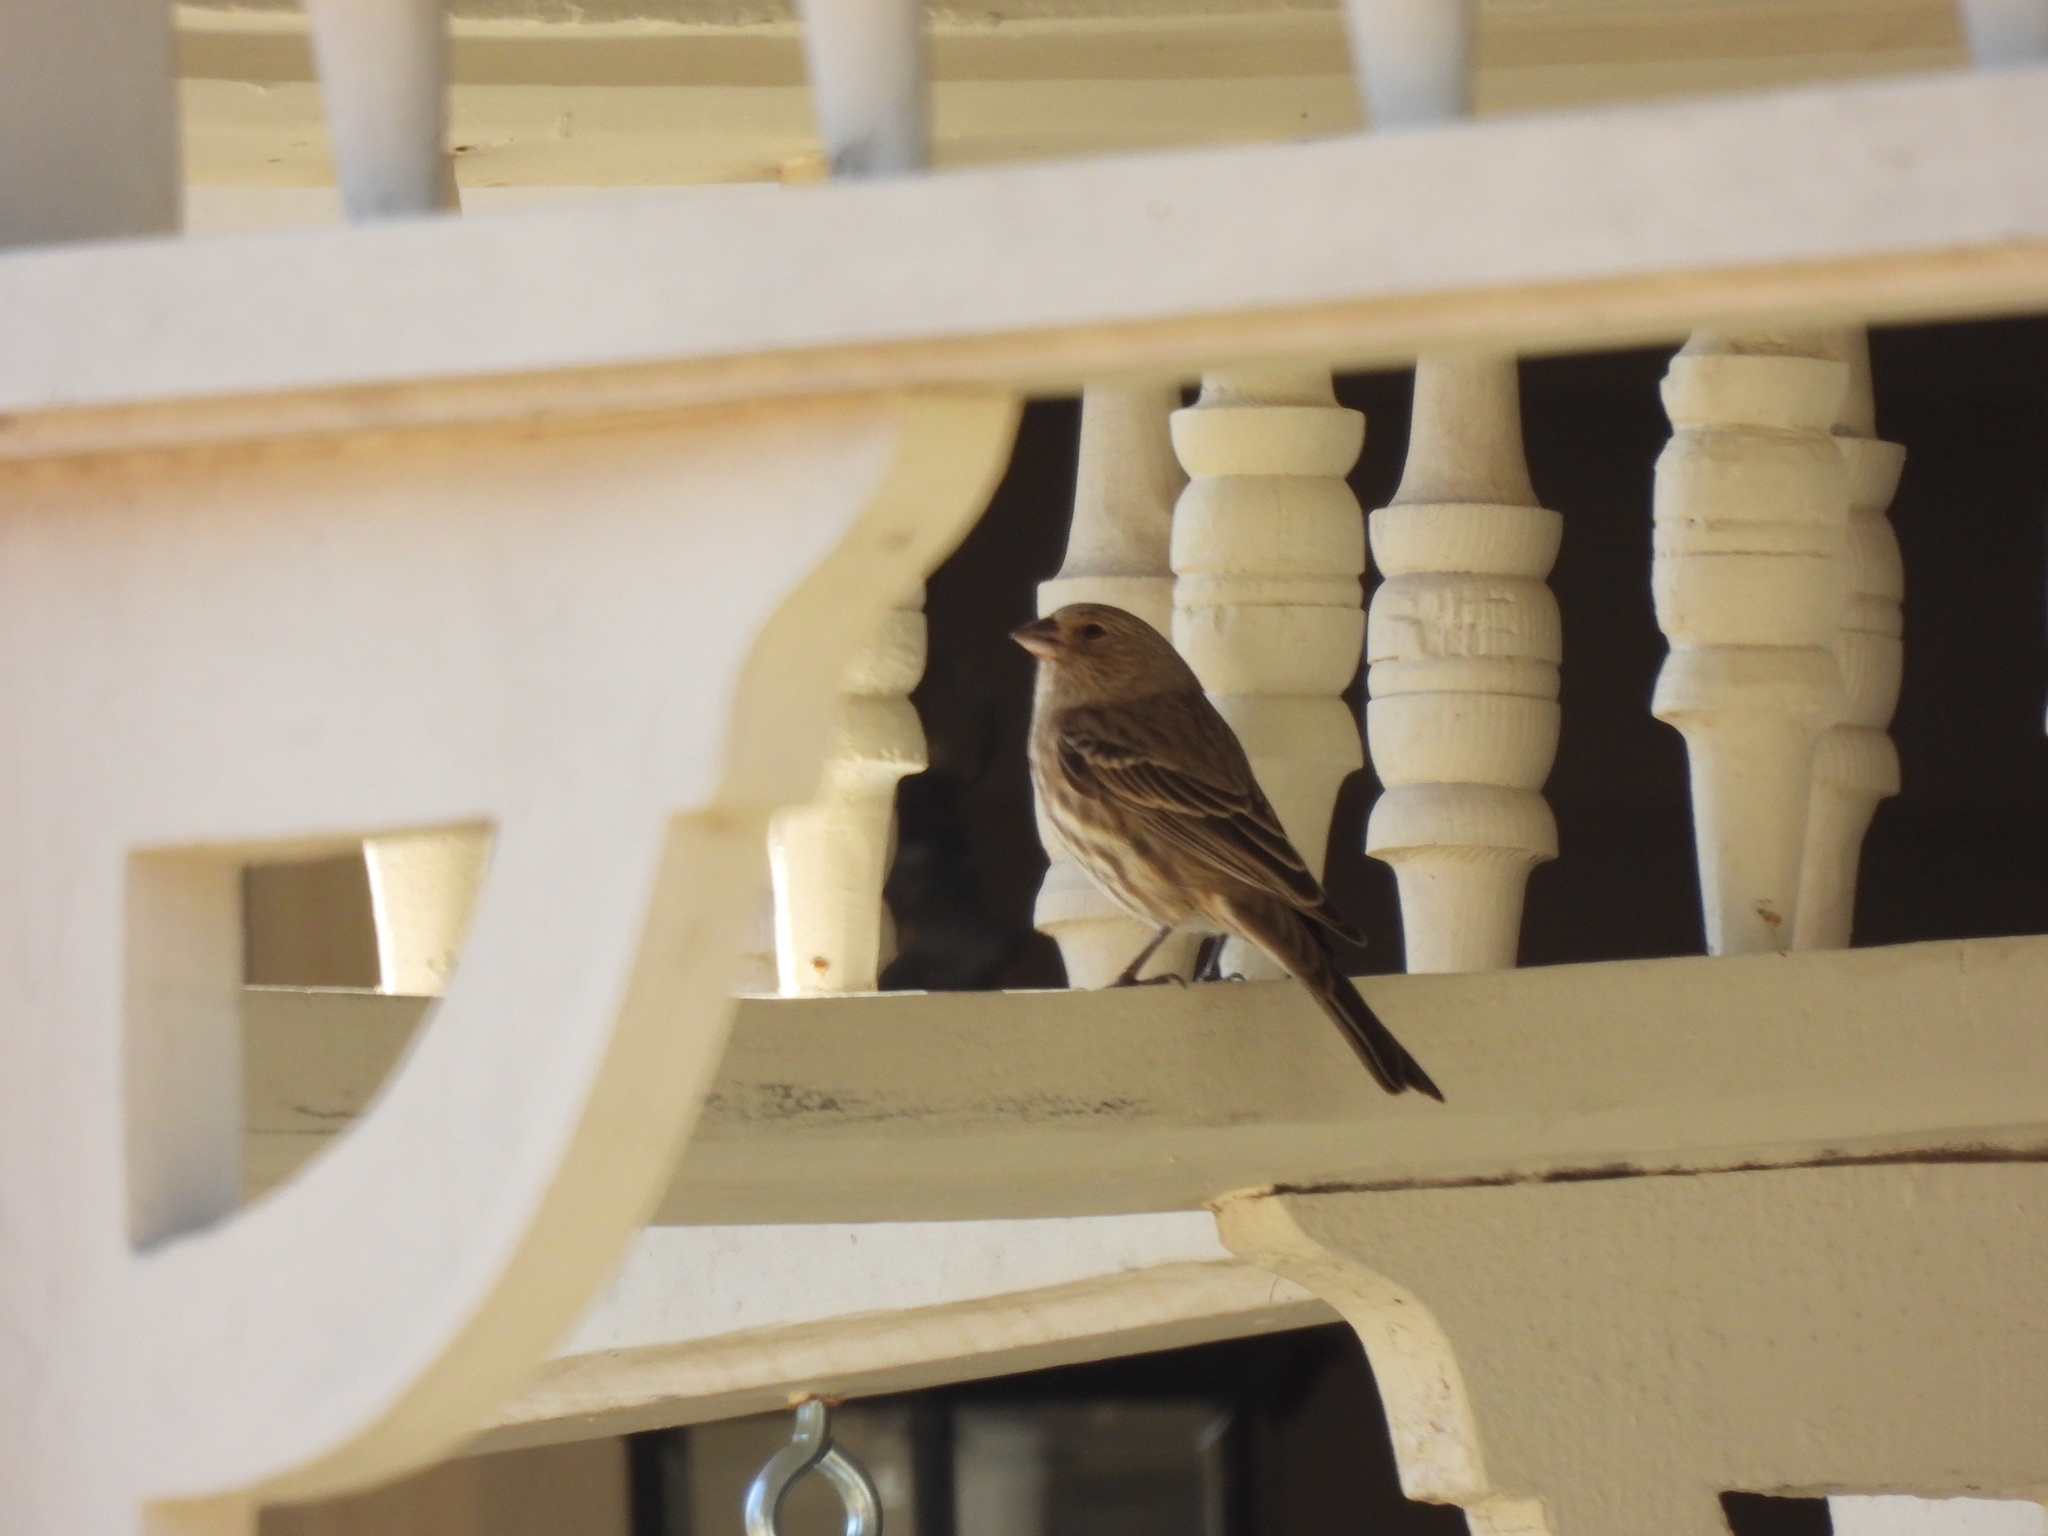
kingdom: Animalia
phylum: Chordata
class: Aves
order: Passeriformes
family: Fringillidae
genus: Haemorhous
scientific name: Haemorhous mexicanus
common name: House finch
